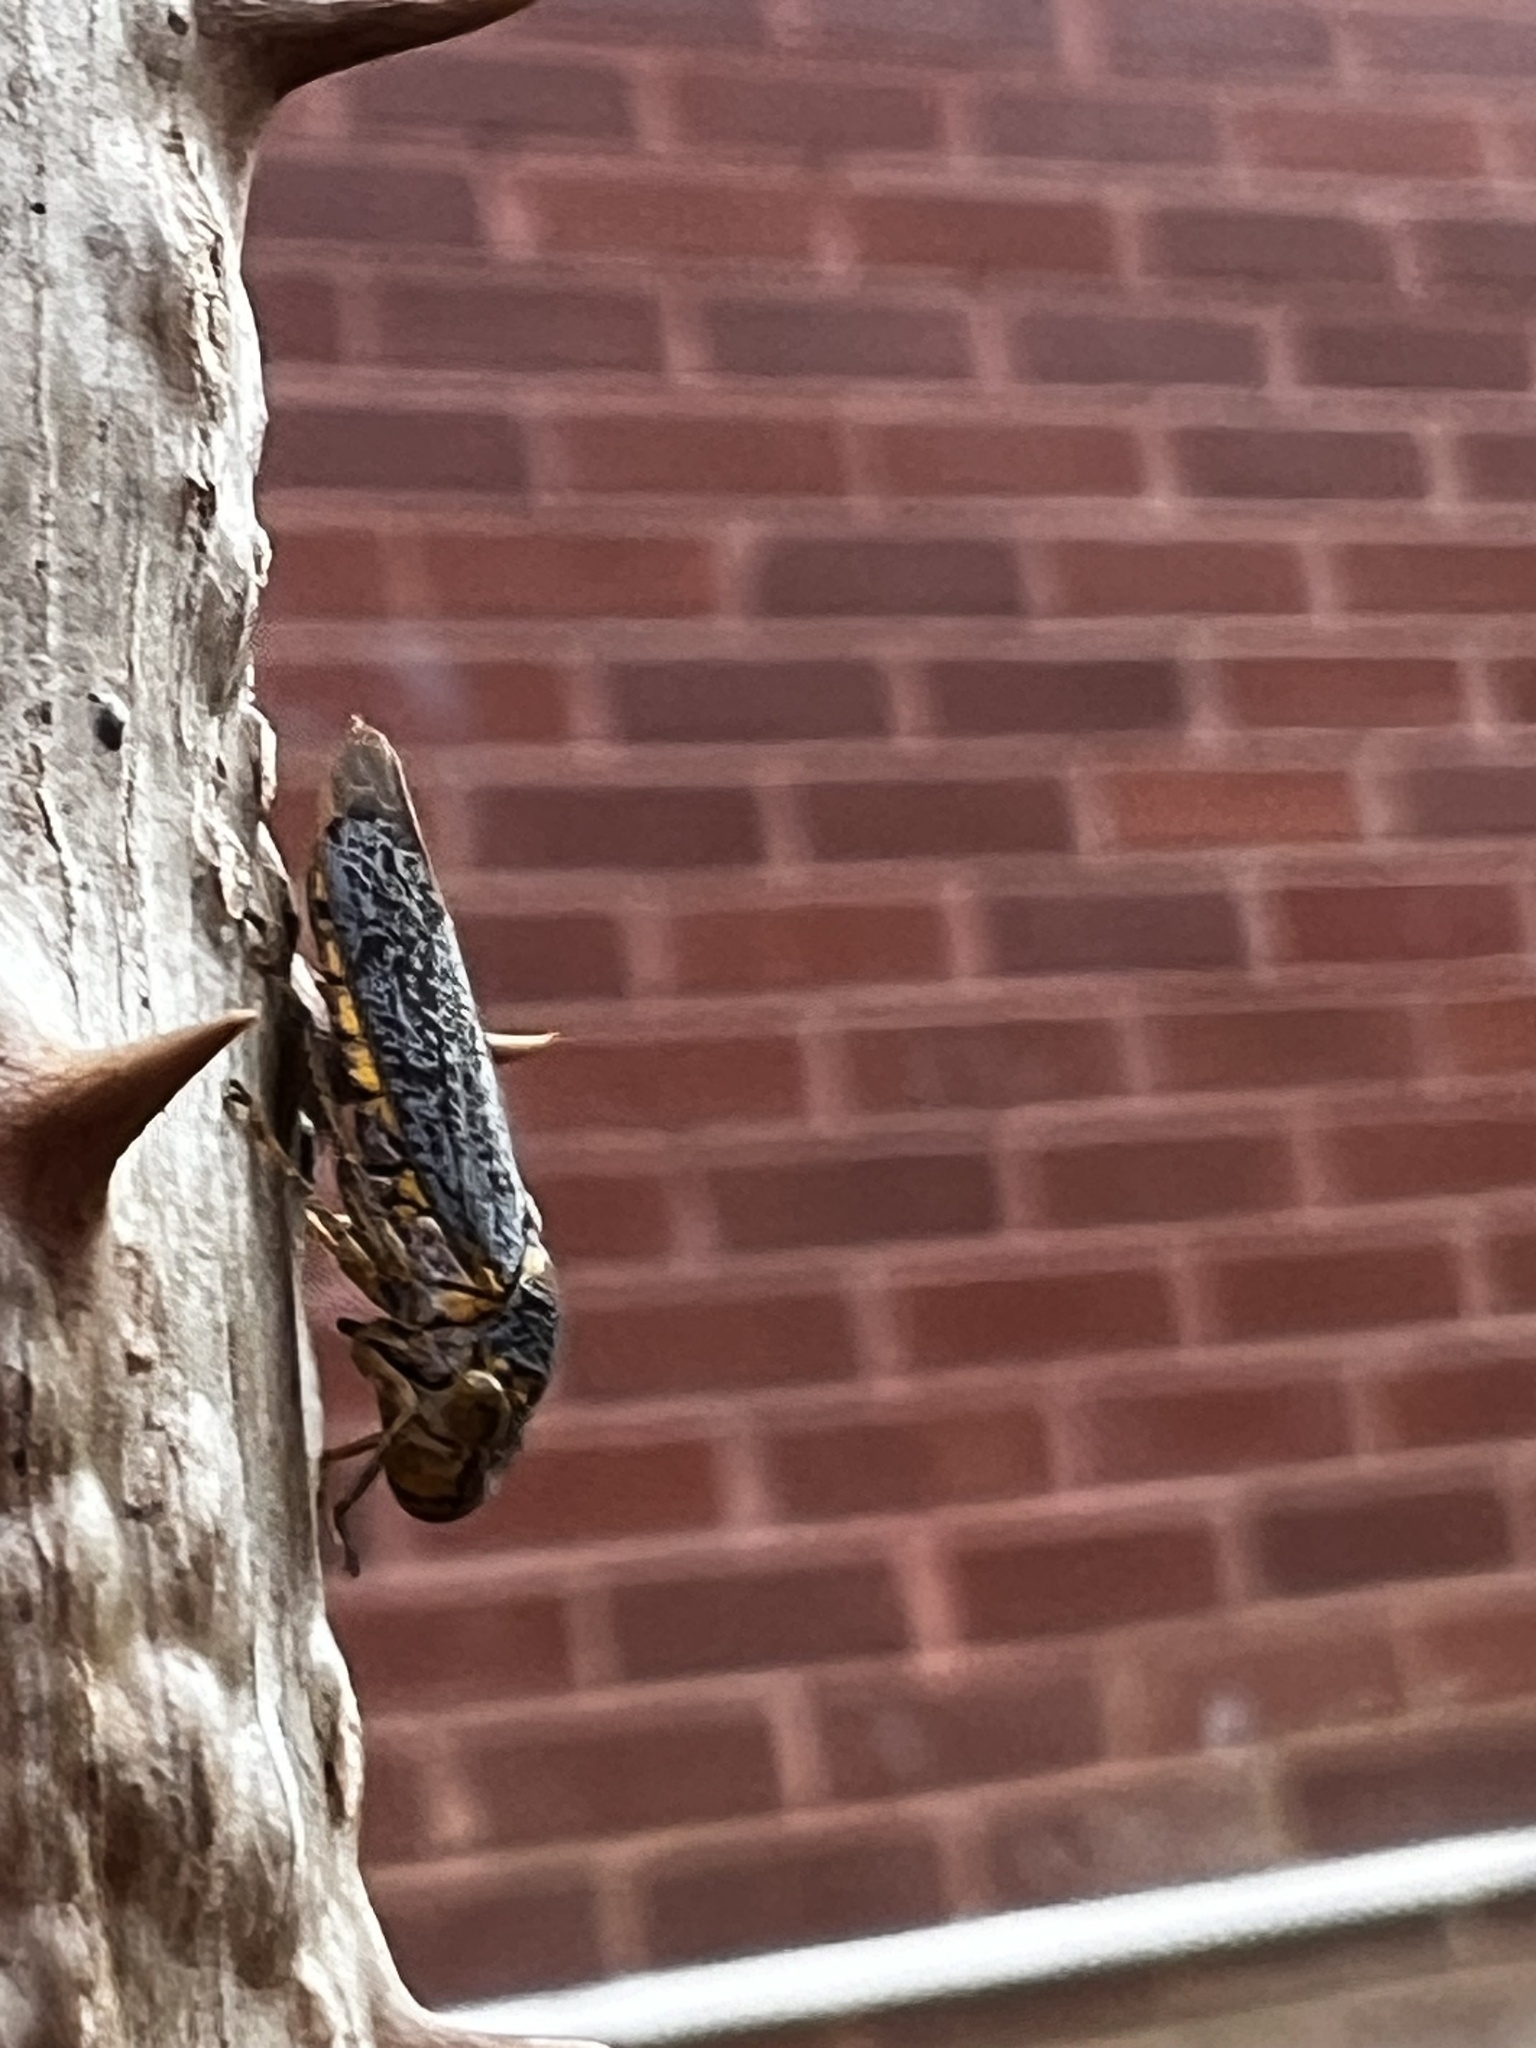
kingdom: Animalia
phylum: Arthropoda
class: Insecta
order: Hemiptera
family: Cicadellidae
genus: Oncometopia
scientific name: Oncometopia orbona
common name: Broad-headed sharpshooter
